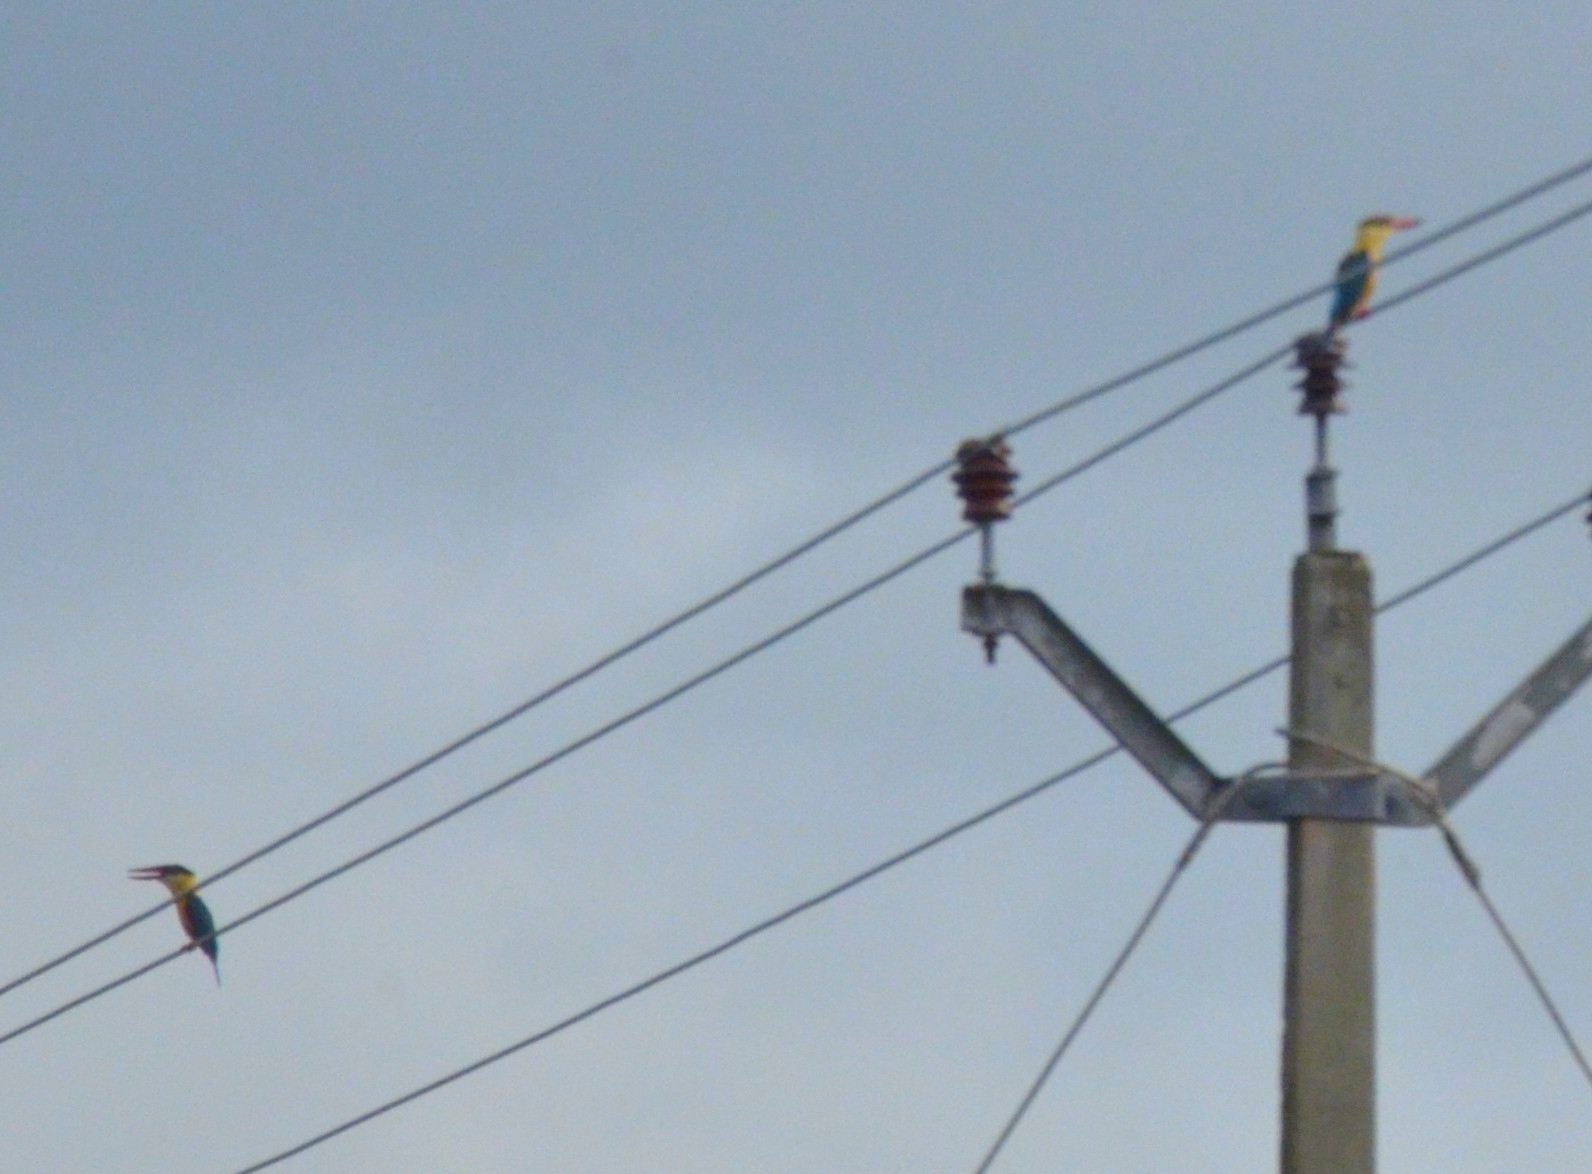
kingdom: Animalia
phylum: Chordata
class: Aves
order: Coraciiformes
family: Alcedinidae
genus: Pelargopsis
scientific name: Pelargopsis capensis
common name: Stork-billed kingfisher
